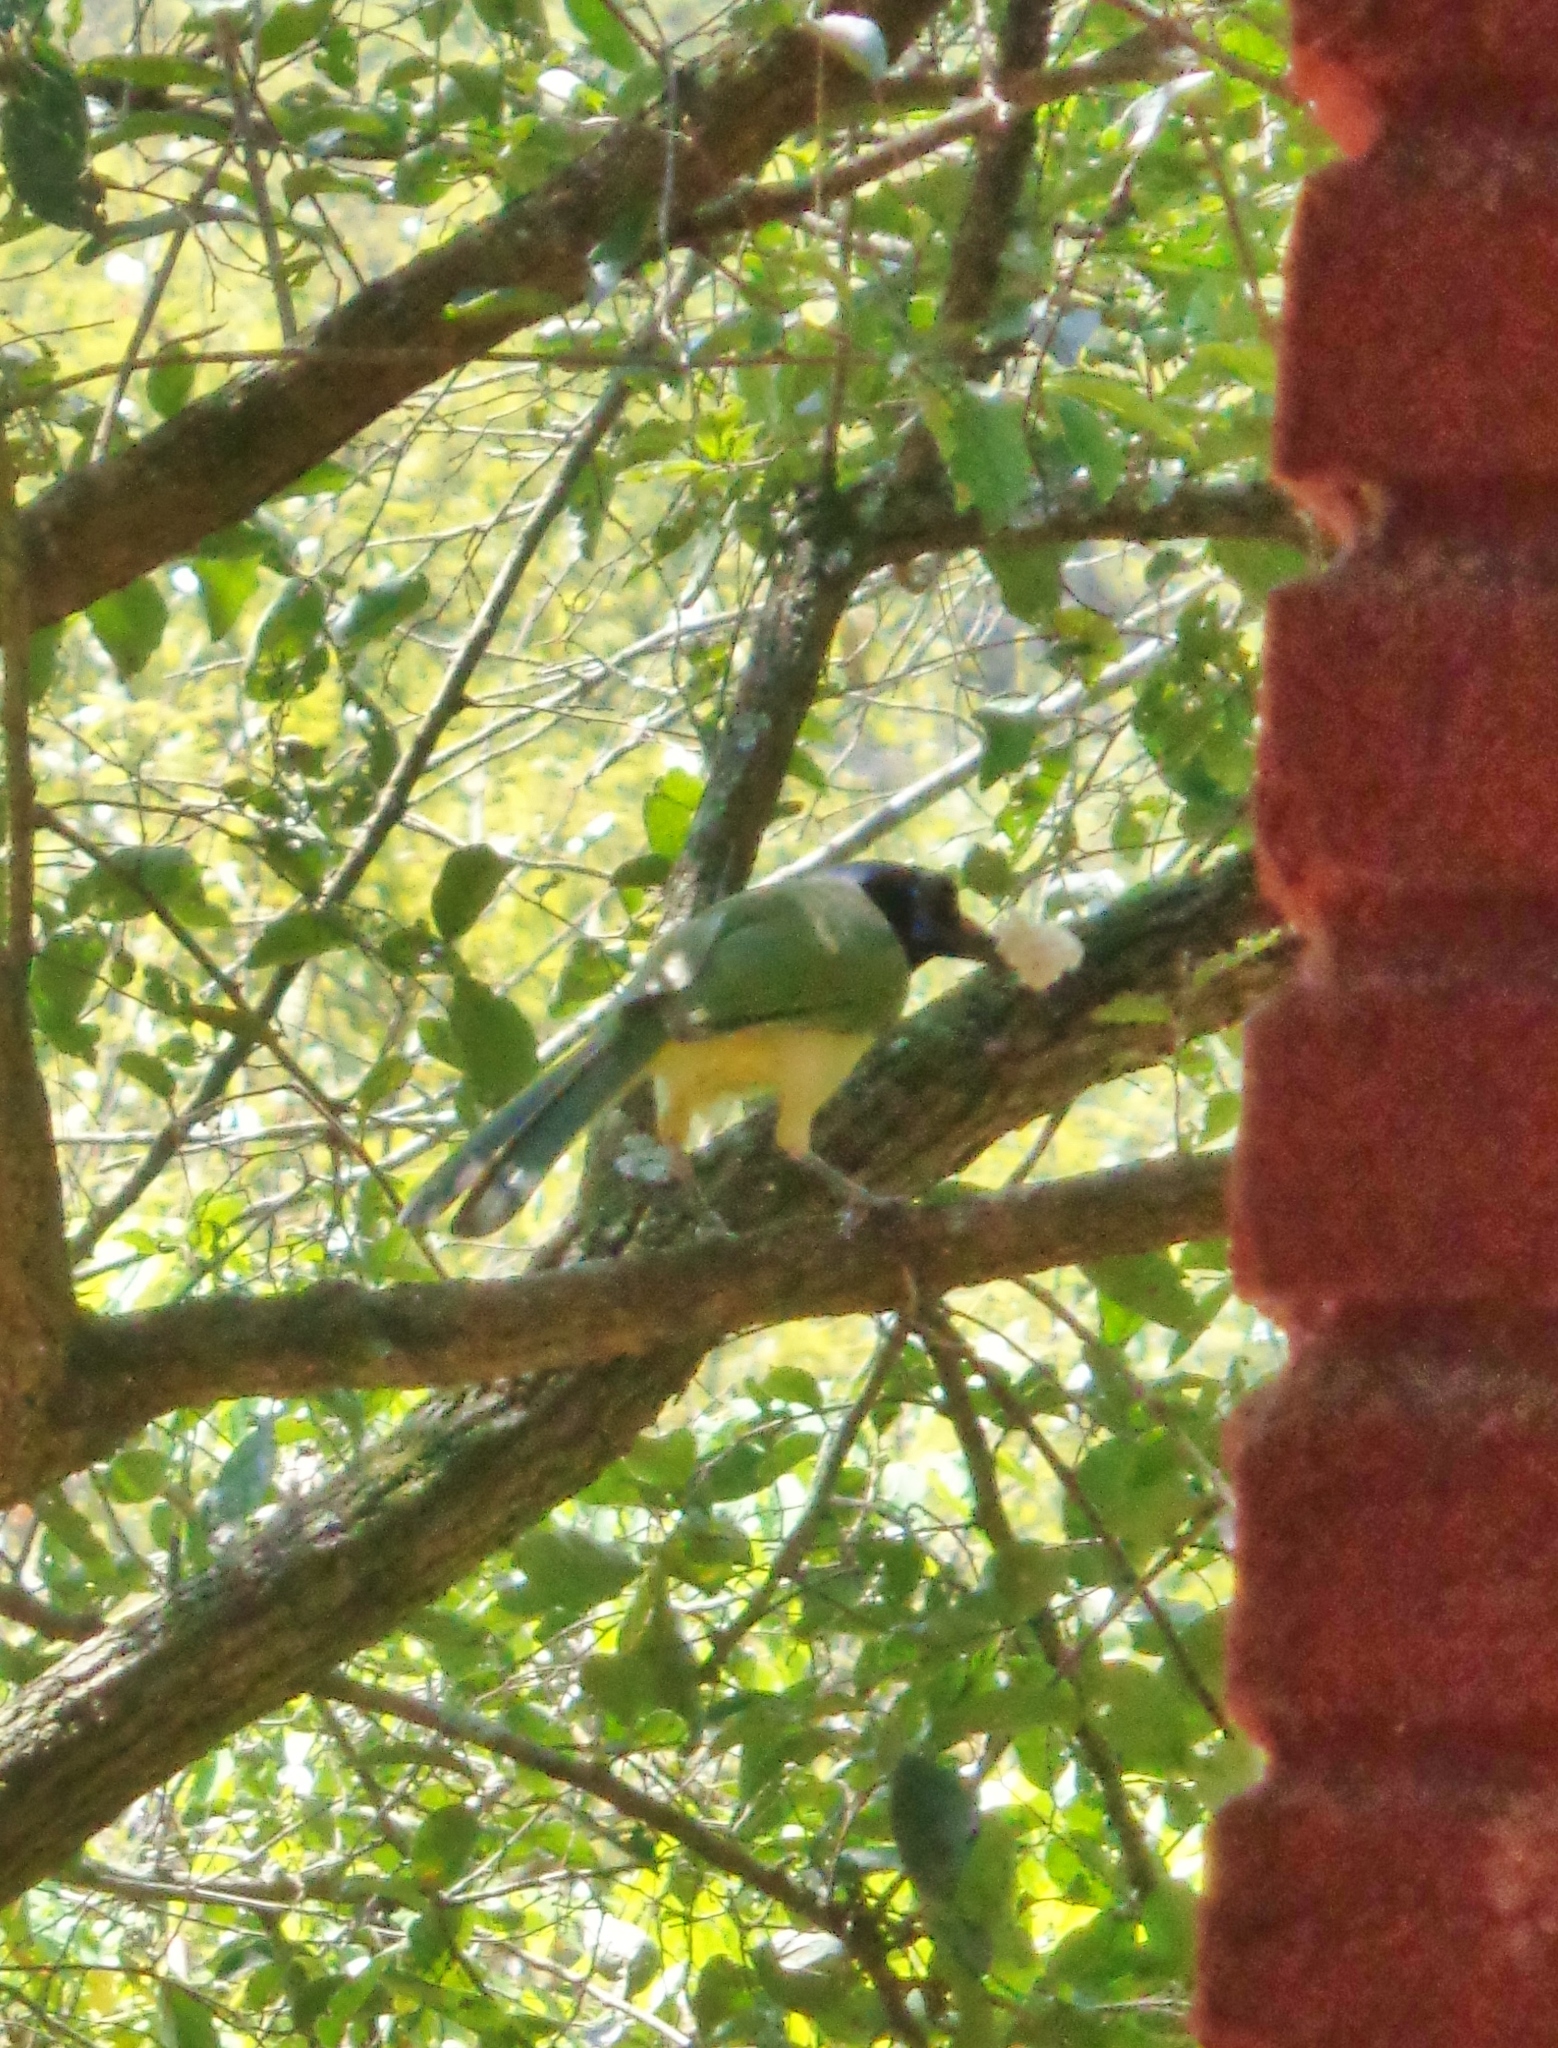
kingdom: Animalia
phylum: Chordata
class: Aves
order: Passeriformes
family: Corvidae
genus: Cyanocorax
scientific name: Cyanocorax yncas
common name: Green jay
